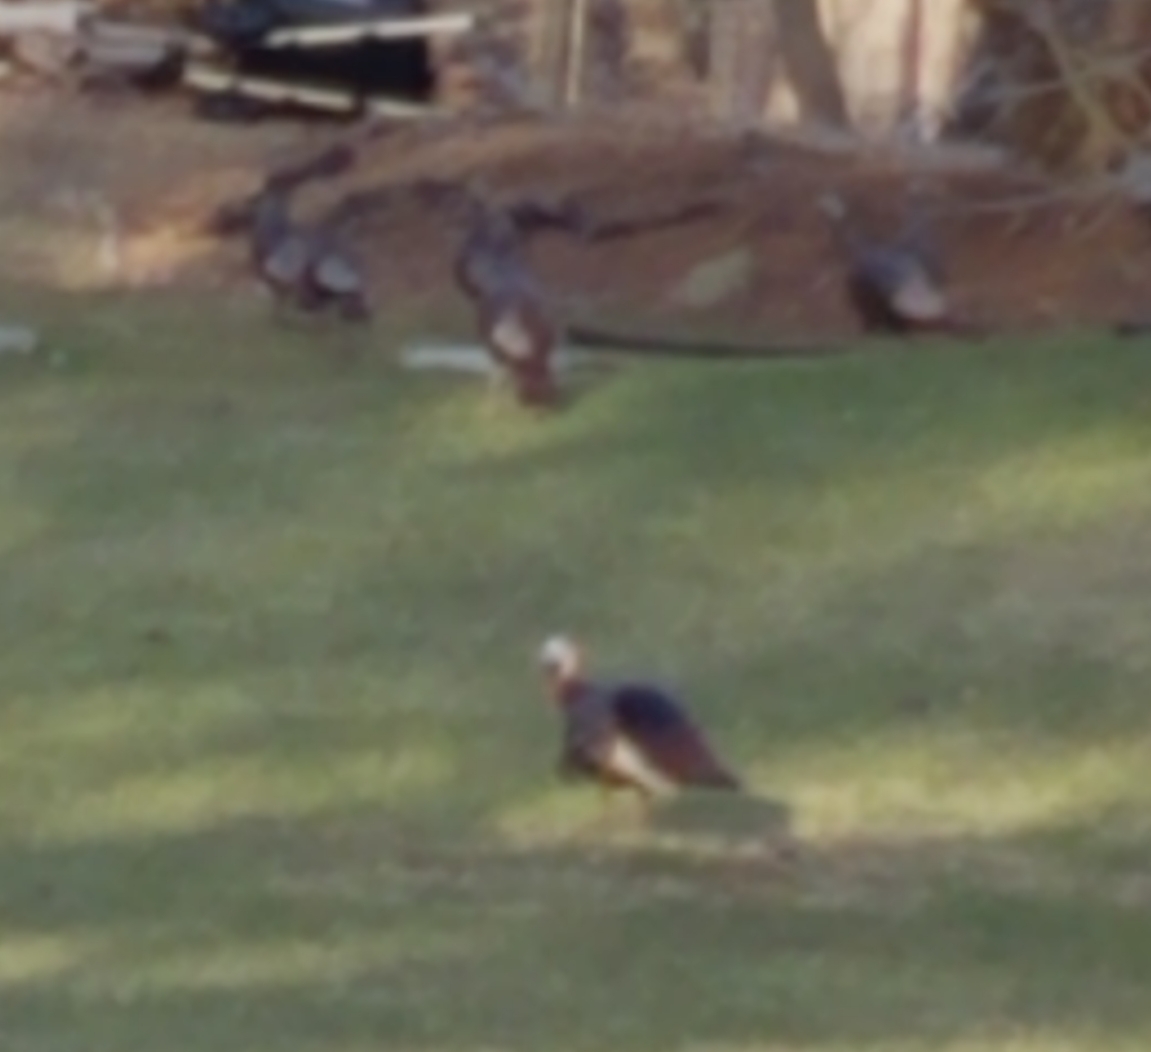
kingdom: Animalia
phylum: Chordata
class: Aves
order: Galliformes
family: Phasianidae
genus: Meleagris
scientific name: Meleagris gallopavo
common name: Wild turkey
